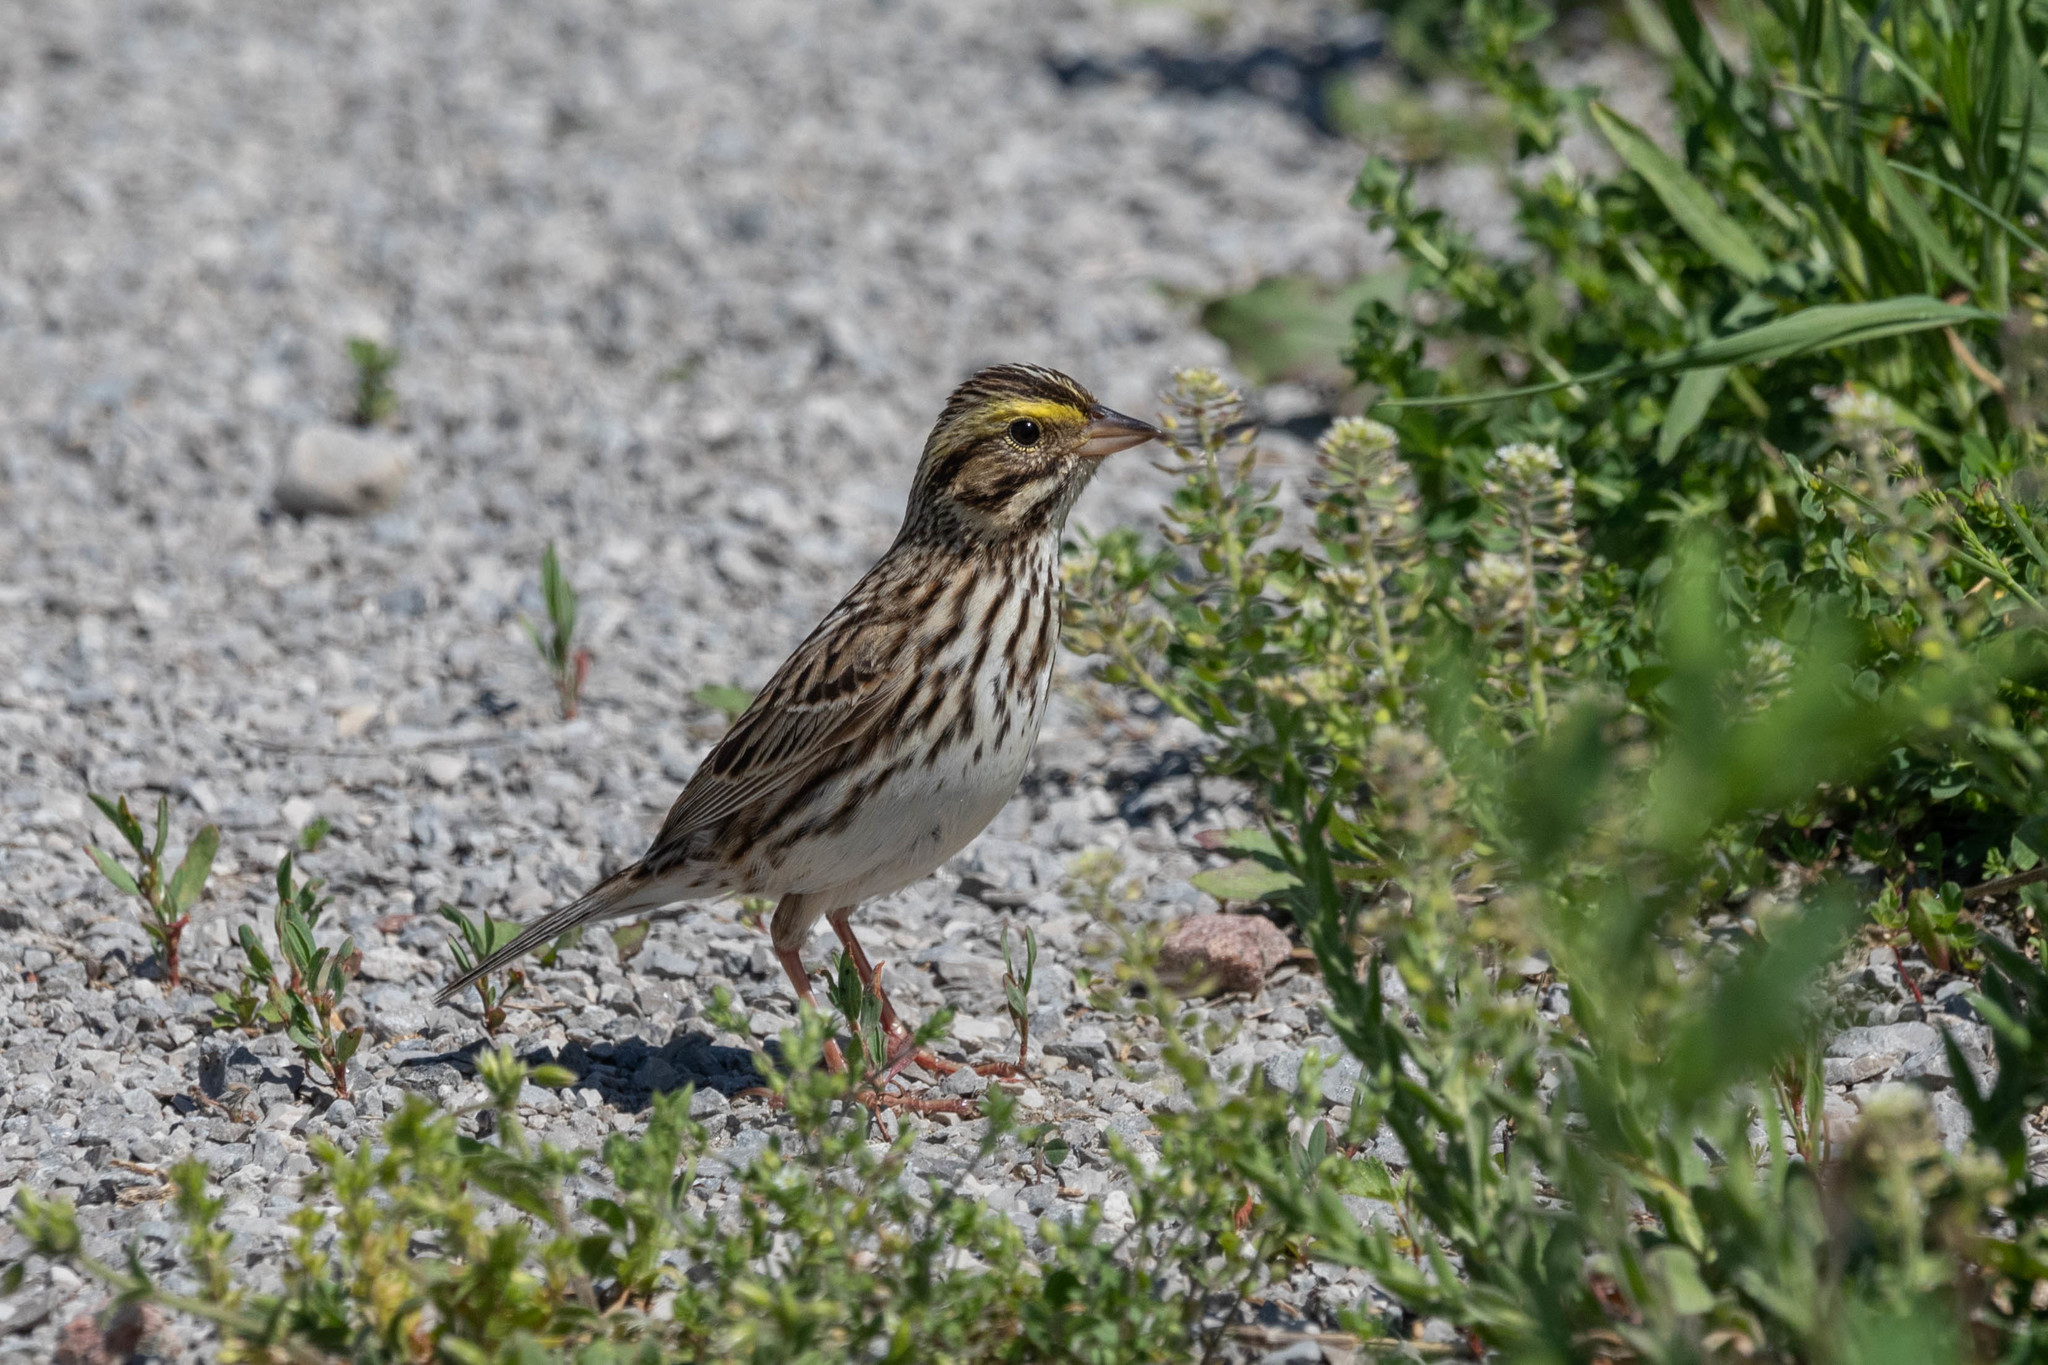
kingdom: Animalia
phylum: Chordata
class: Aves
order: Passeriformes
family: Passerellidae
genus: Passerculus
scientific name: Passerculus sandwichensis
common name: Savannah sparrow
